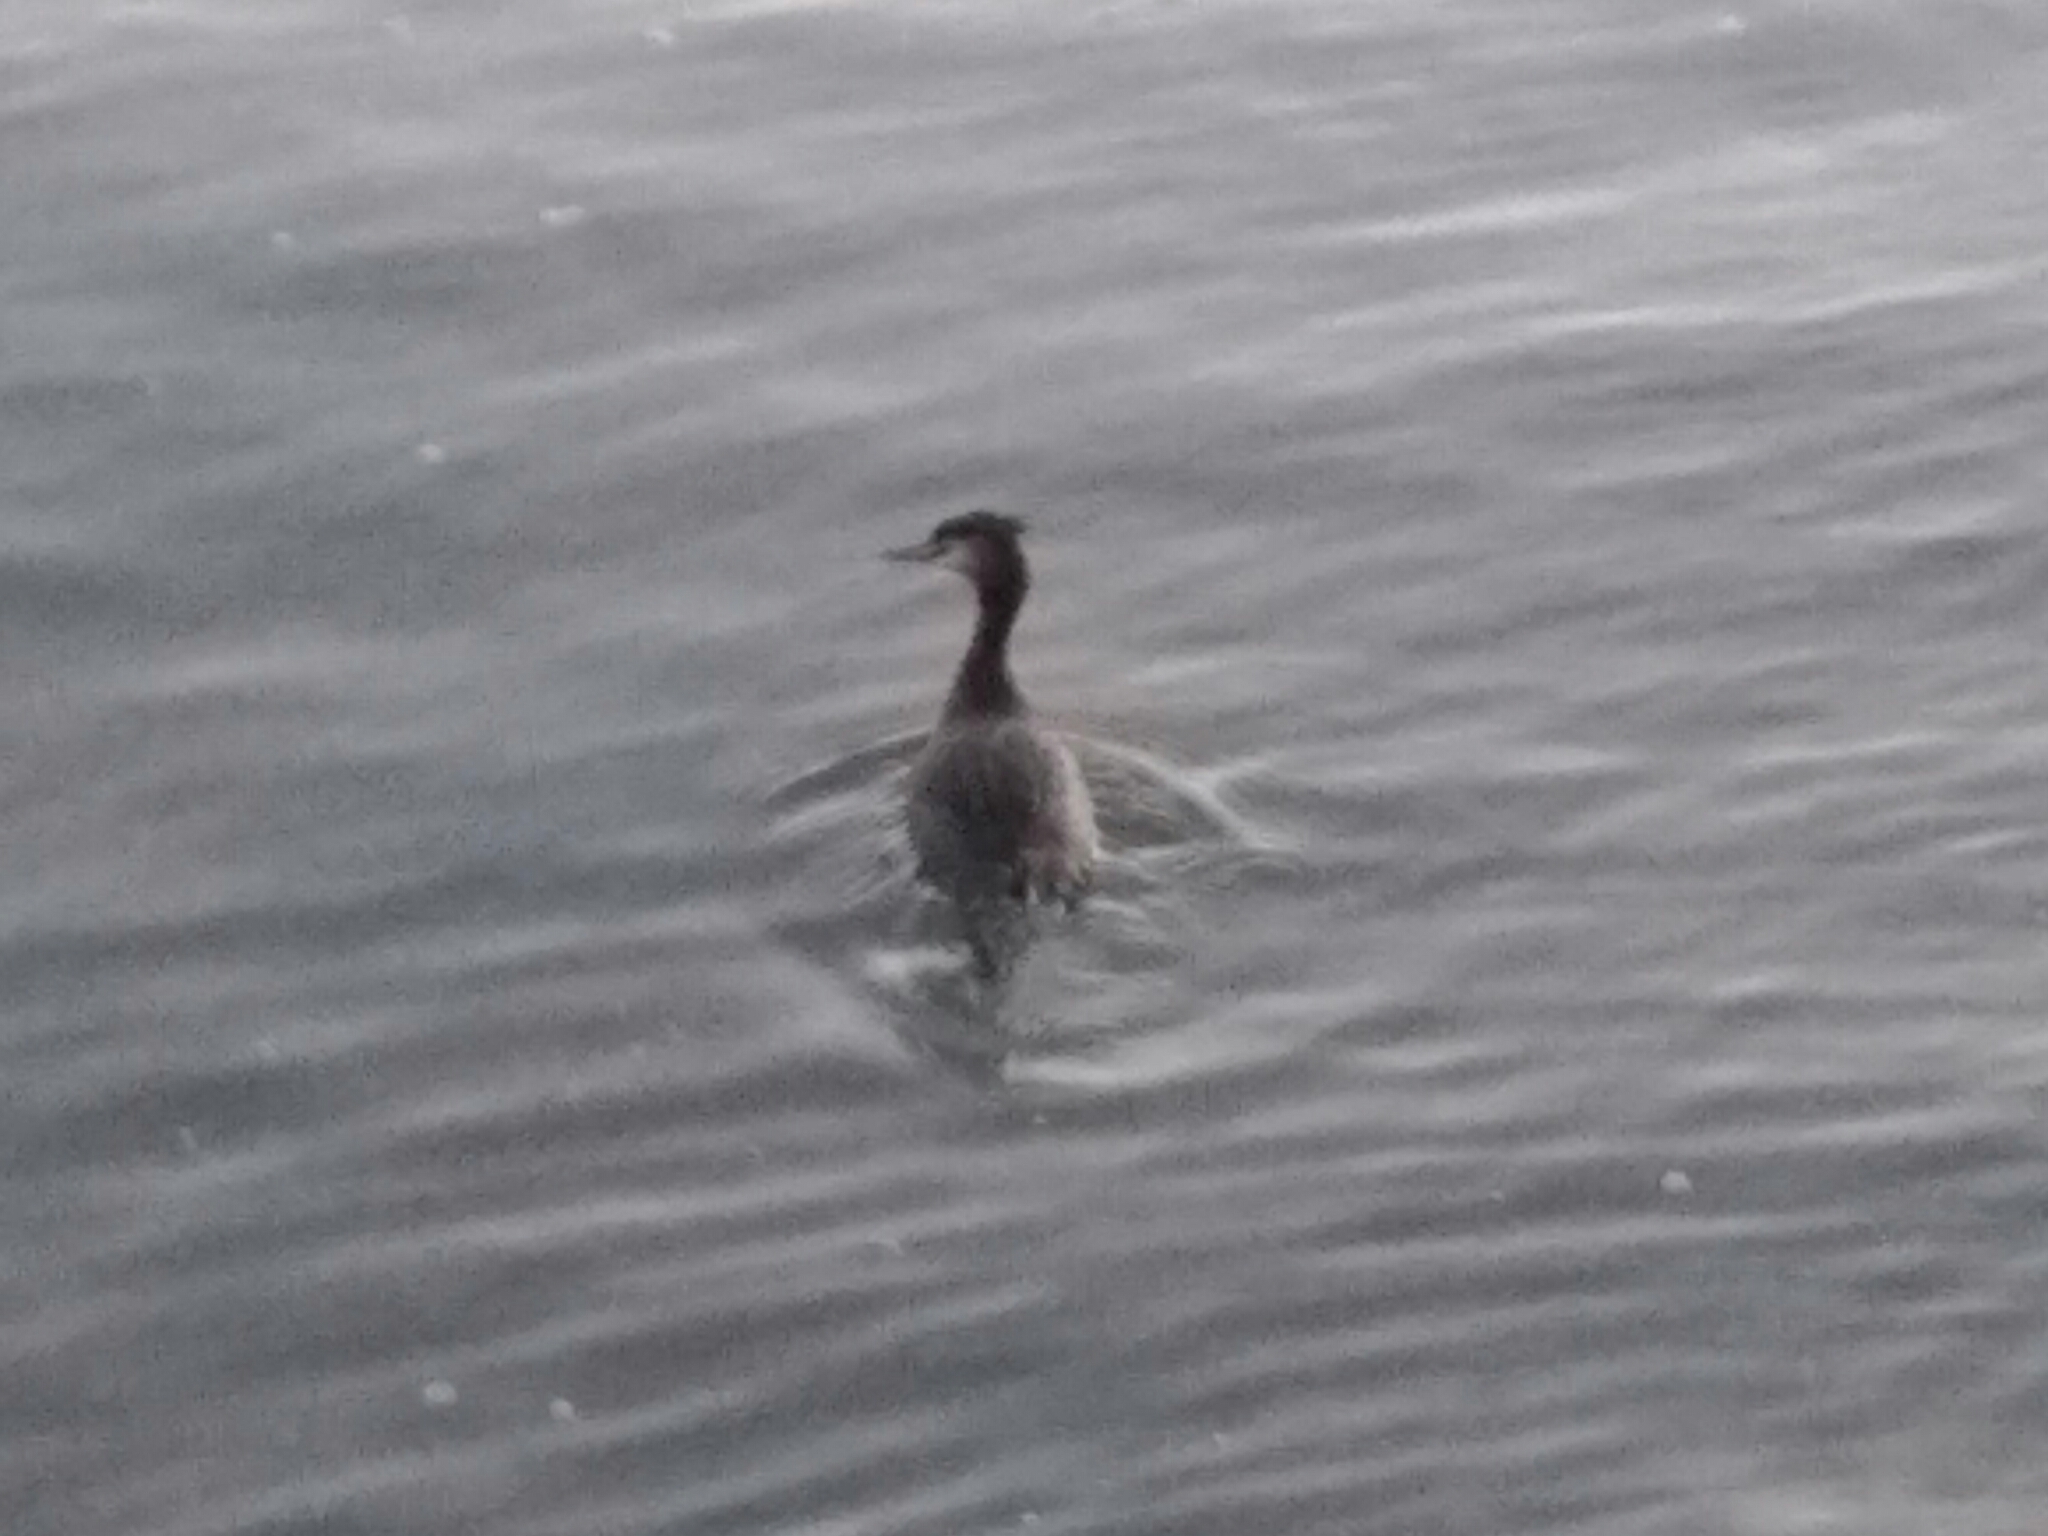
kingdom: Animalia
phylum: Chordata
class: Aves
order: Podicipediformes
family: Podicipedidae
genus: Podiceps
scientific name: Podiceps cristatus
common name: Great crested grebe
